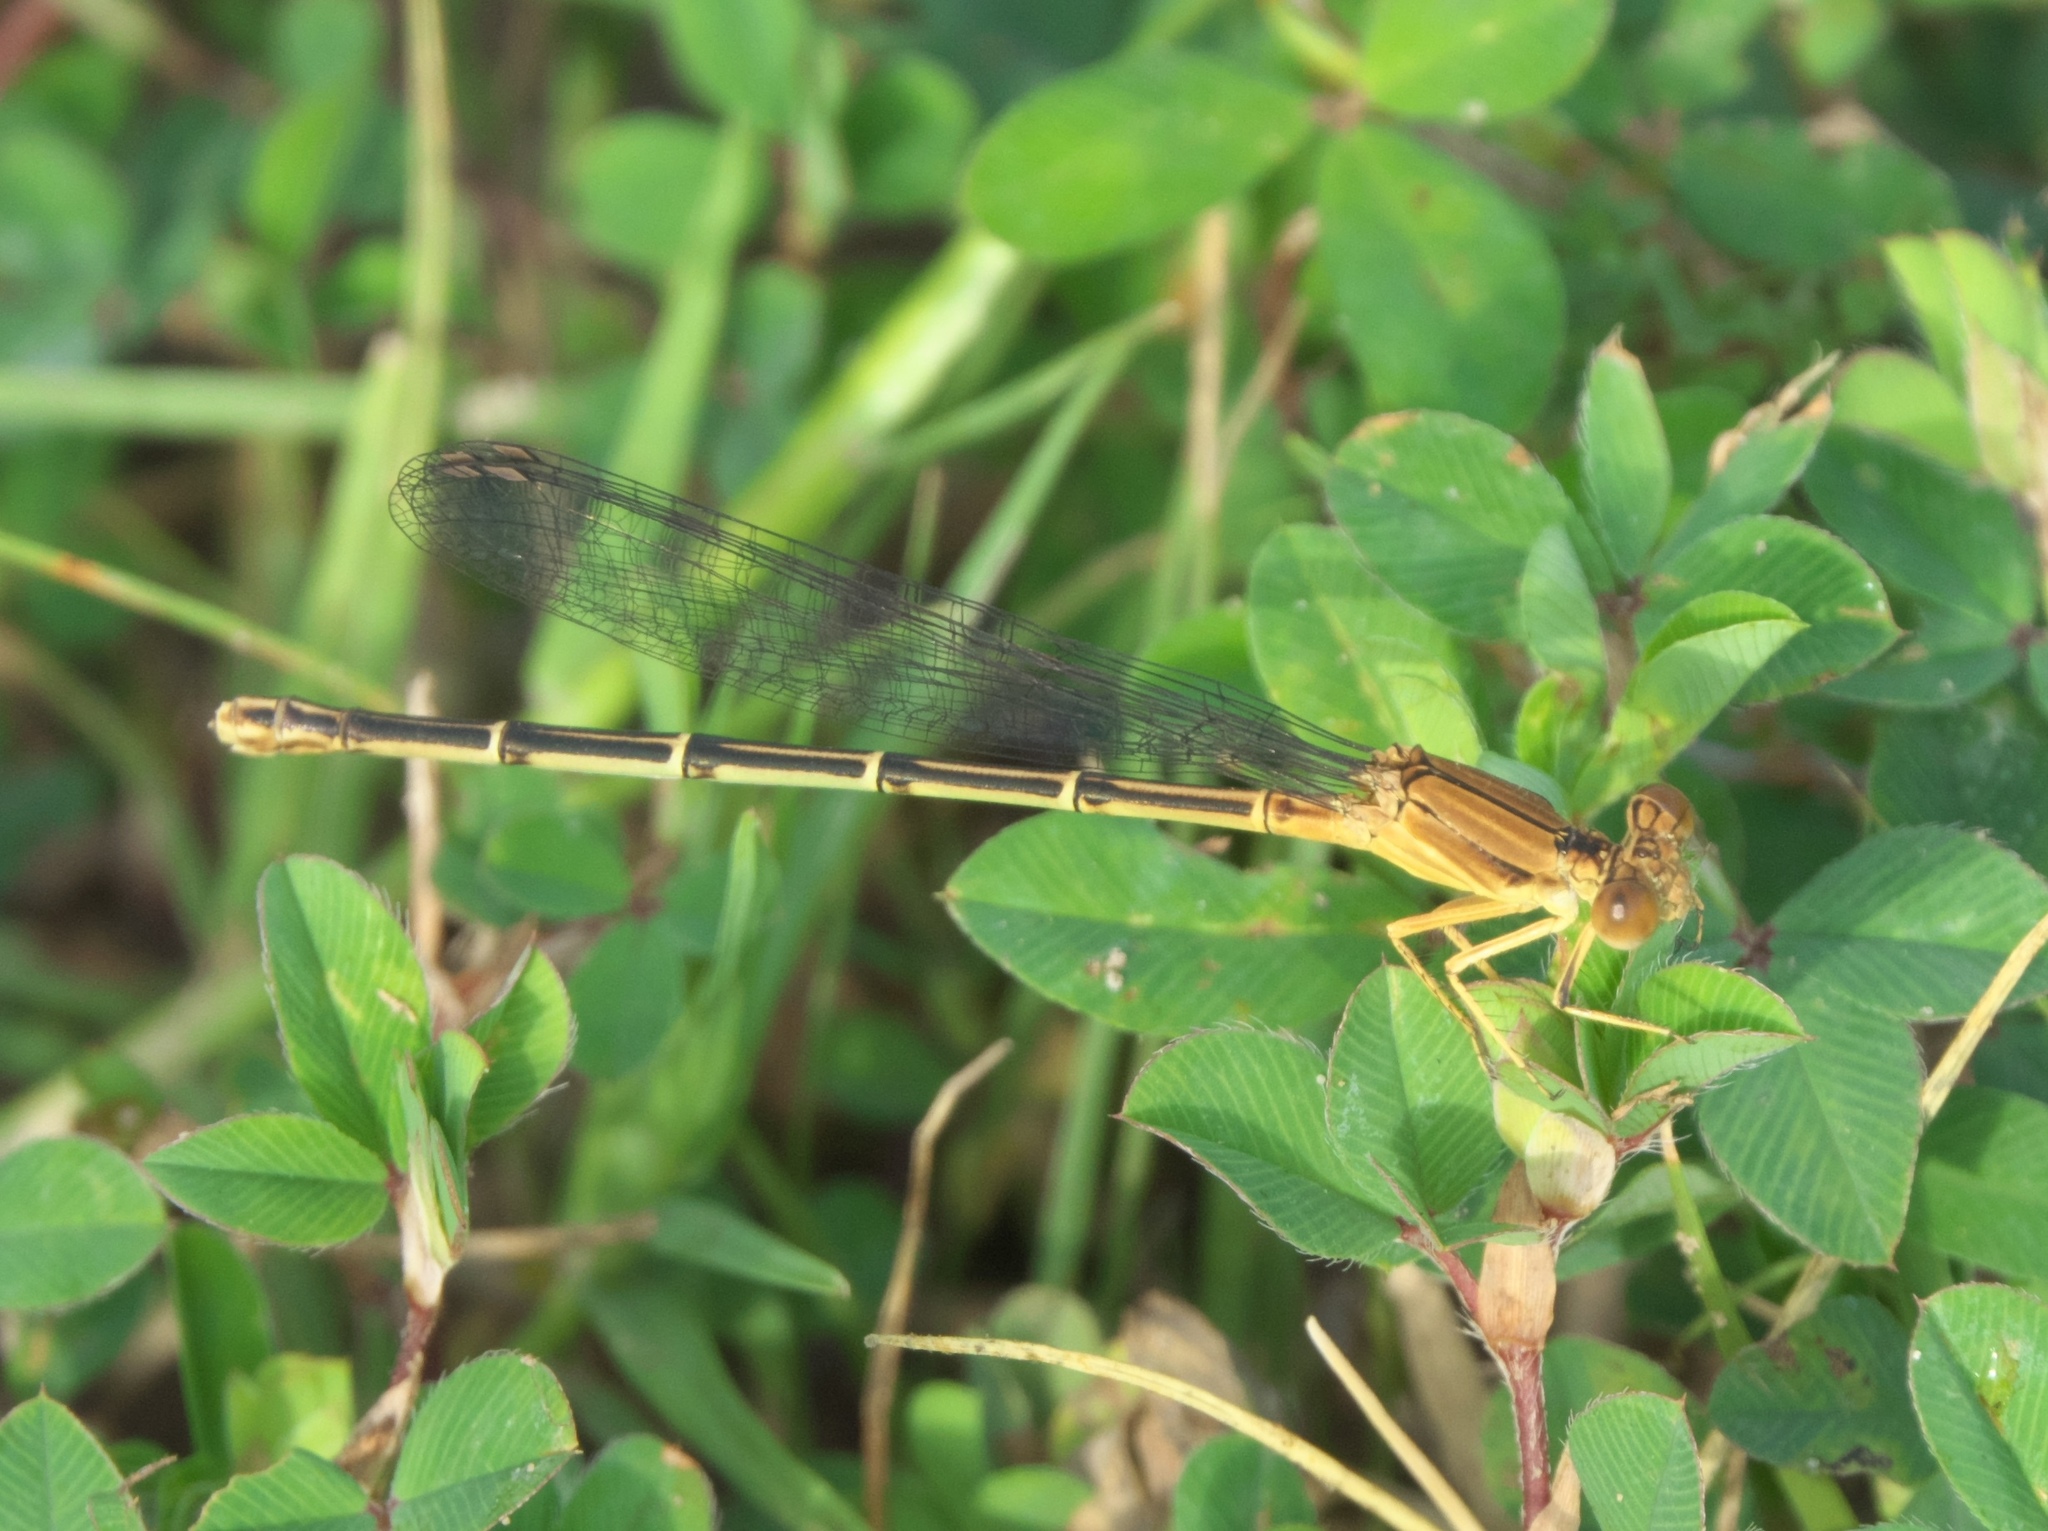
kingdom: Animalia
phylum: Arthropoda
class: Insecta
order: Odonata
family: Coenagrionidae
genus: Argia
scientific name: Argia apicalis
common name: Blue-fronted dancer
